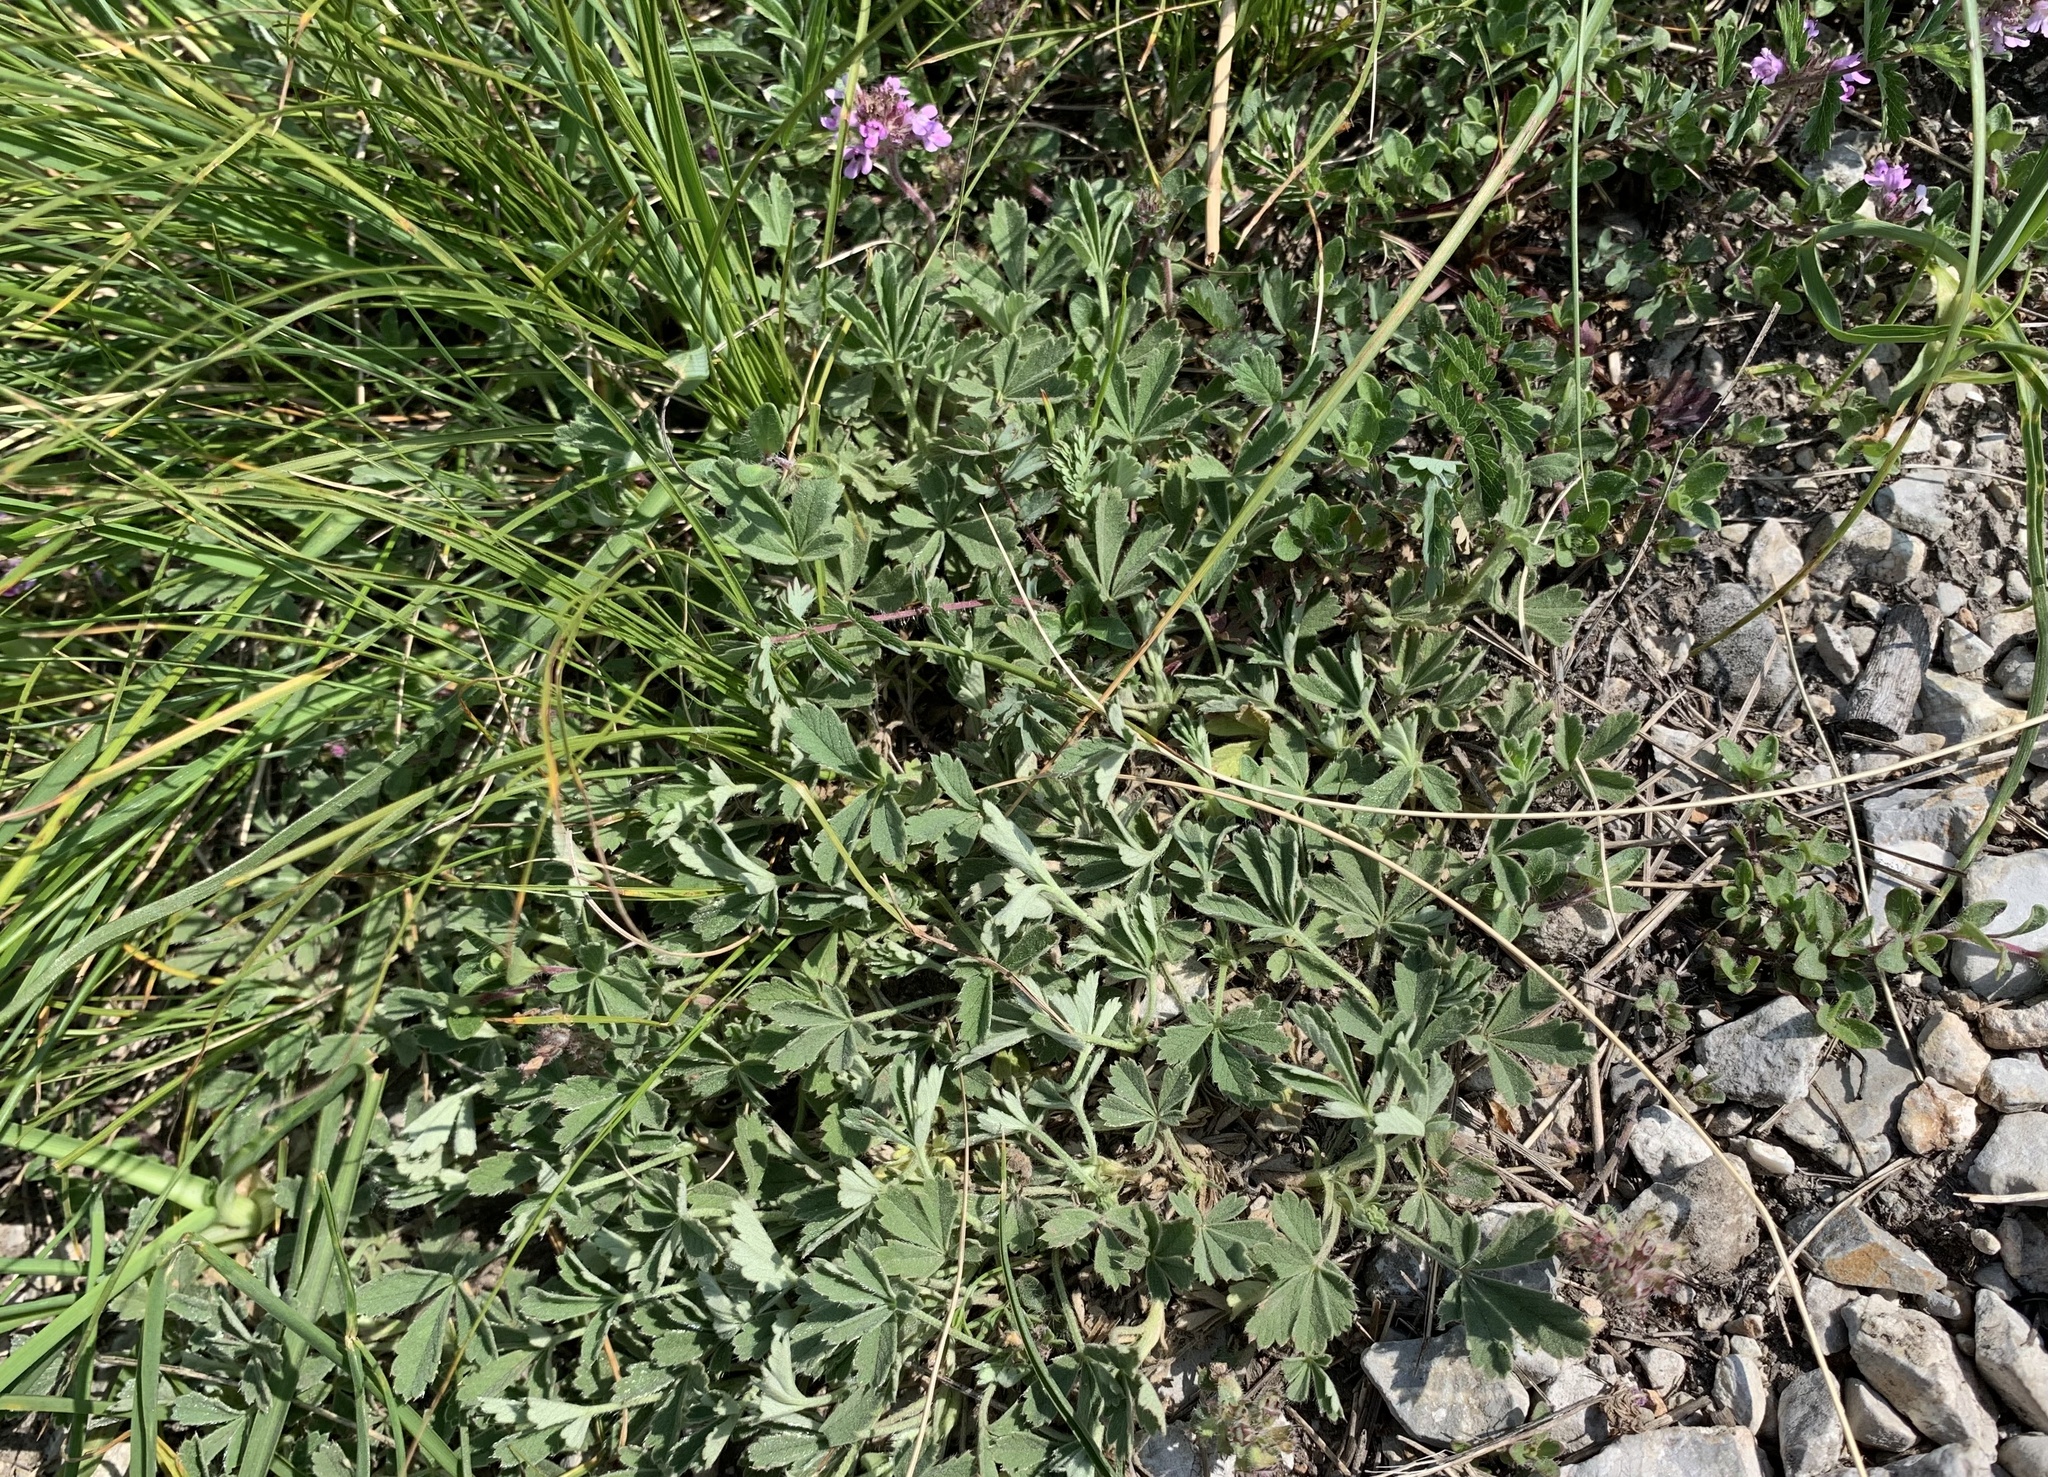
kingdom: Plantae
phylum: Tracheophyta
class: Magnoliopsida
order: Rosales
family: Rosaceae
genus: Potentilla
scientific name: Potentilla incana
